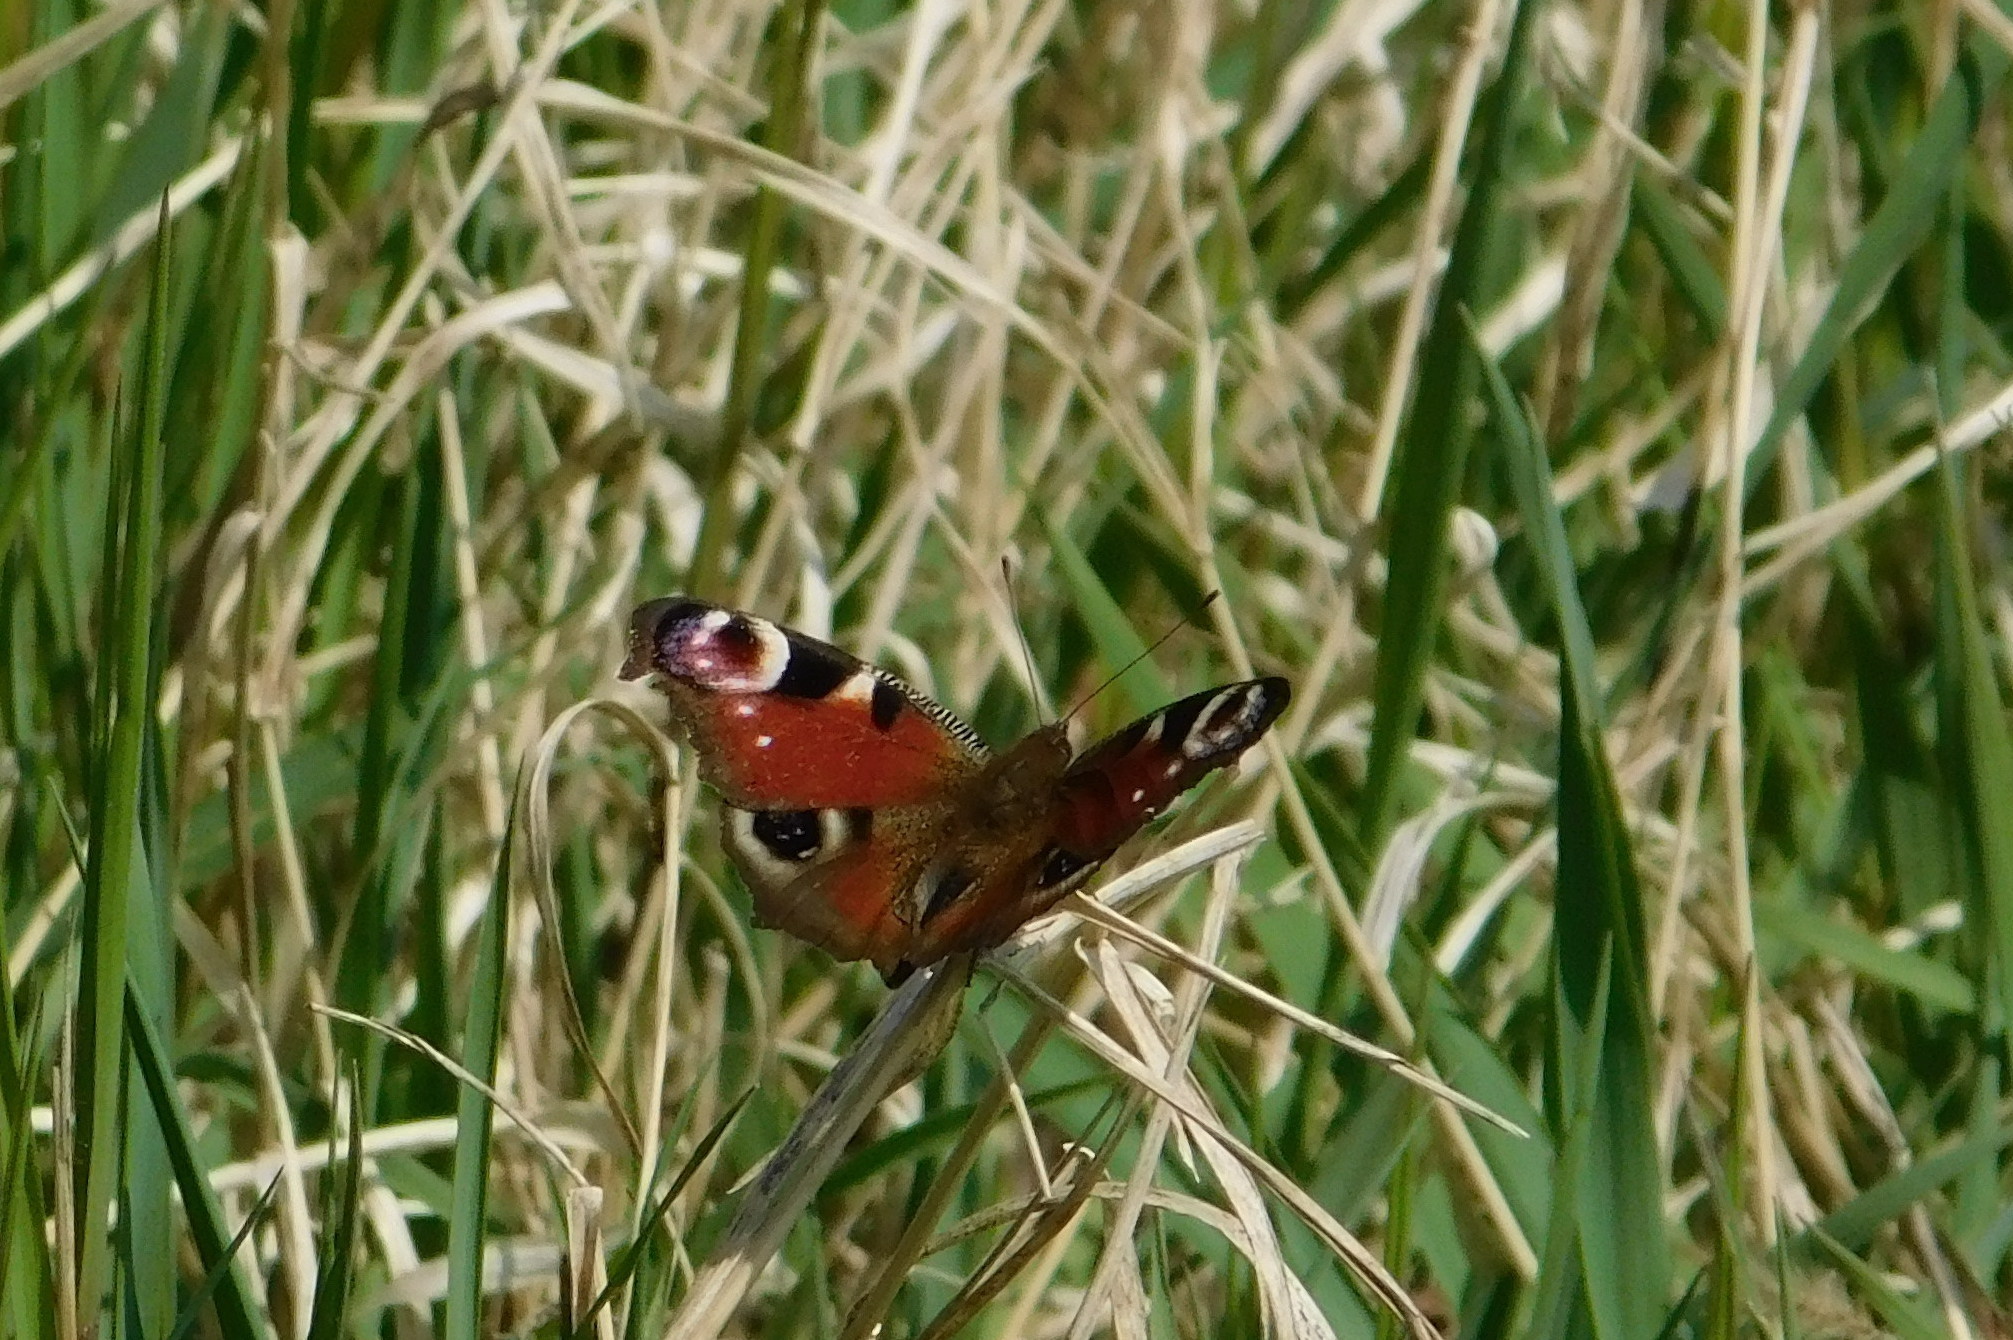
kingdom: Animalia
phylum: Arthropoda
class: Insecta
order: Lepidoptera
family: Nymphalidae
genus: Aglais
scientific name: Aglais io
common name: Peacock
